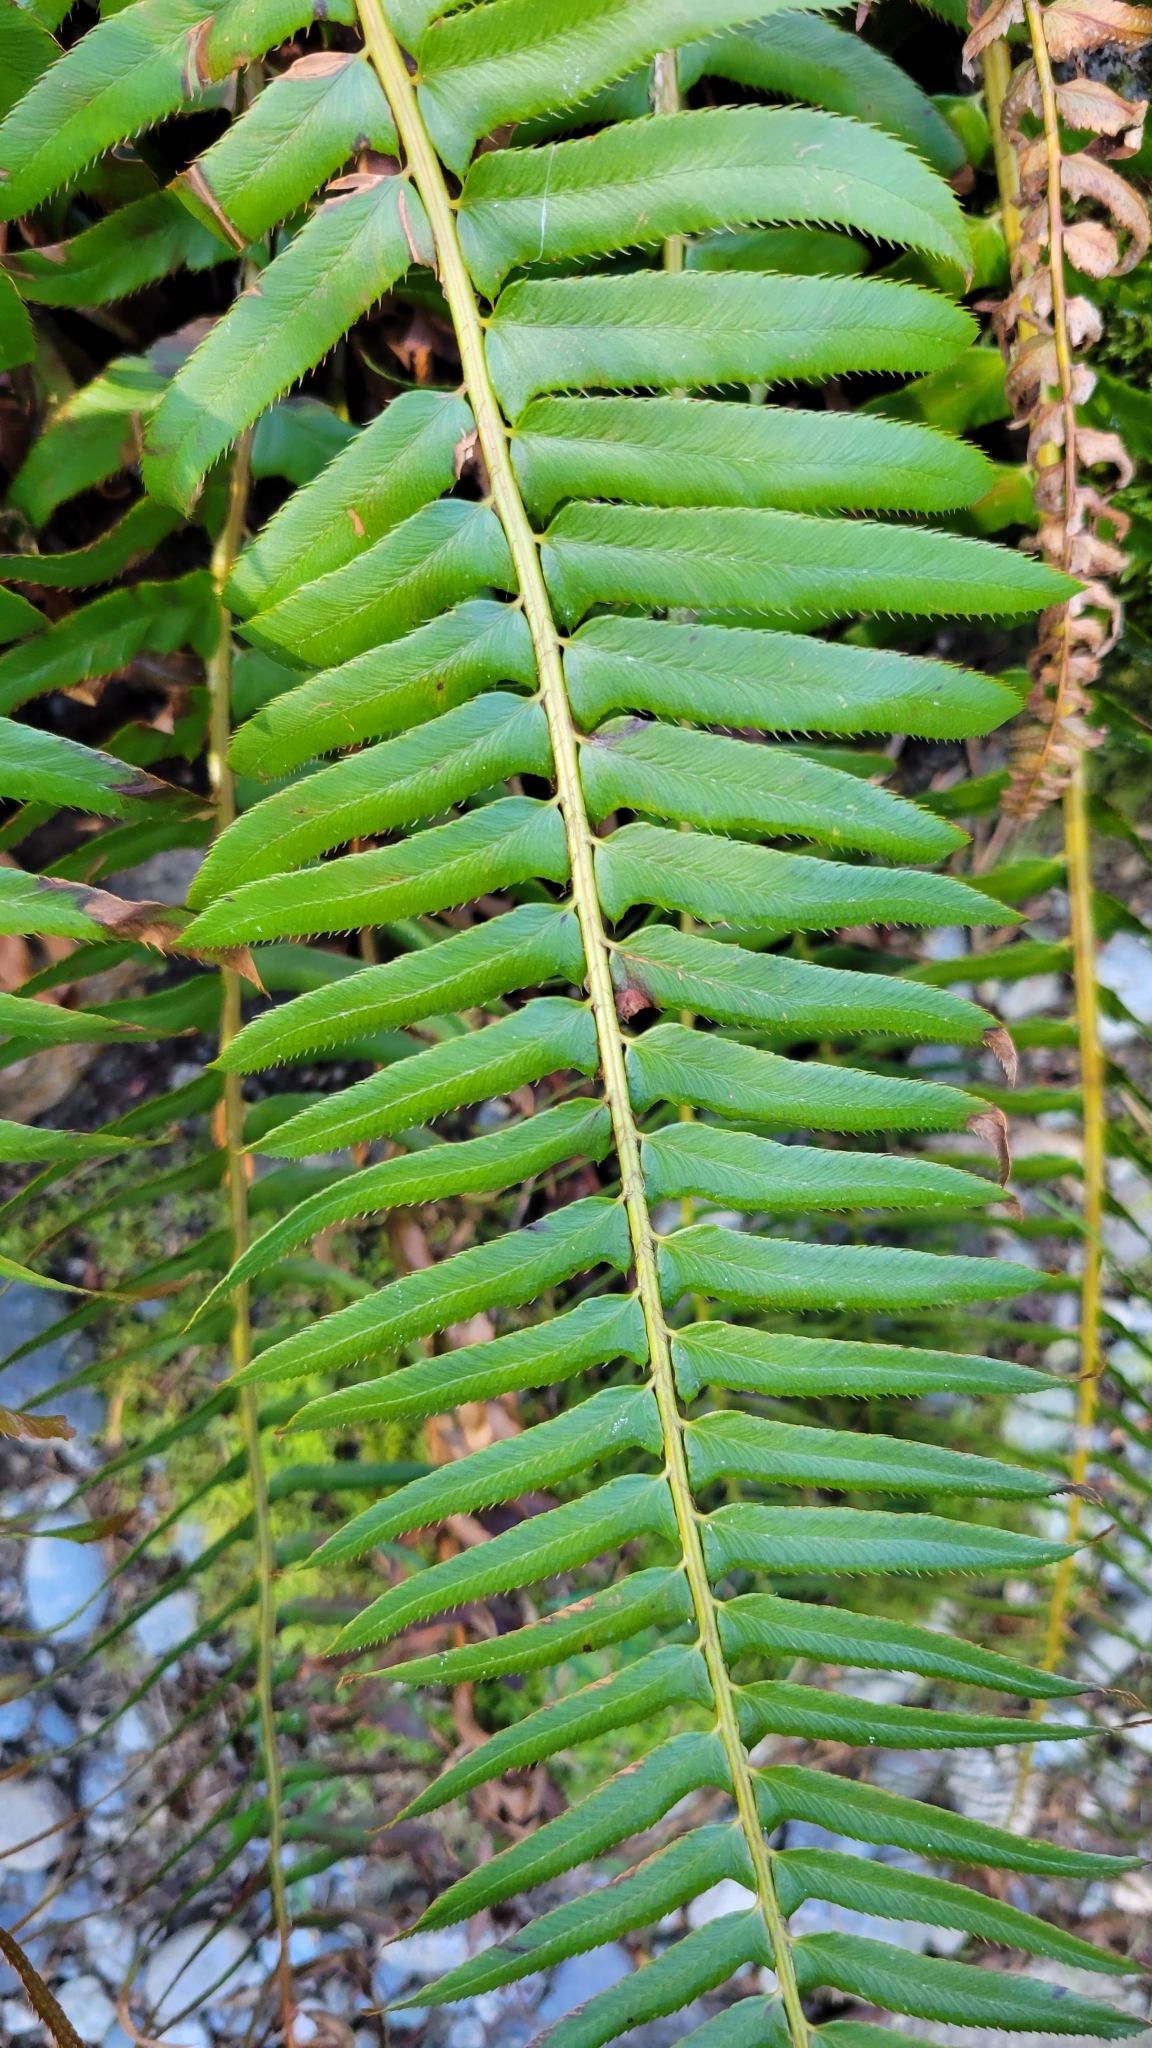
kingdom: Plantae
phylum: Tracheophyta
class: Polypodiopsida
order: Polypodiales
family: Dryopteridaceae
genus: Polystichum
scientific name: Polystichum munitum
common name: Western sword-fern
